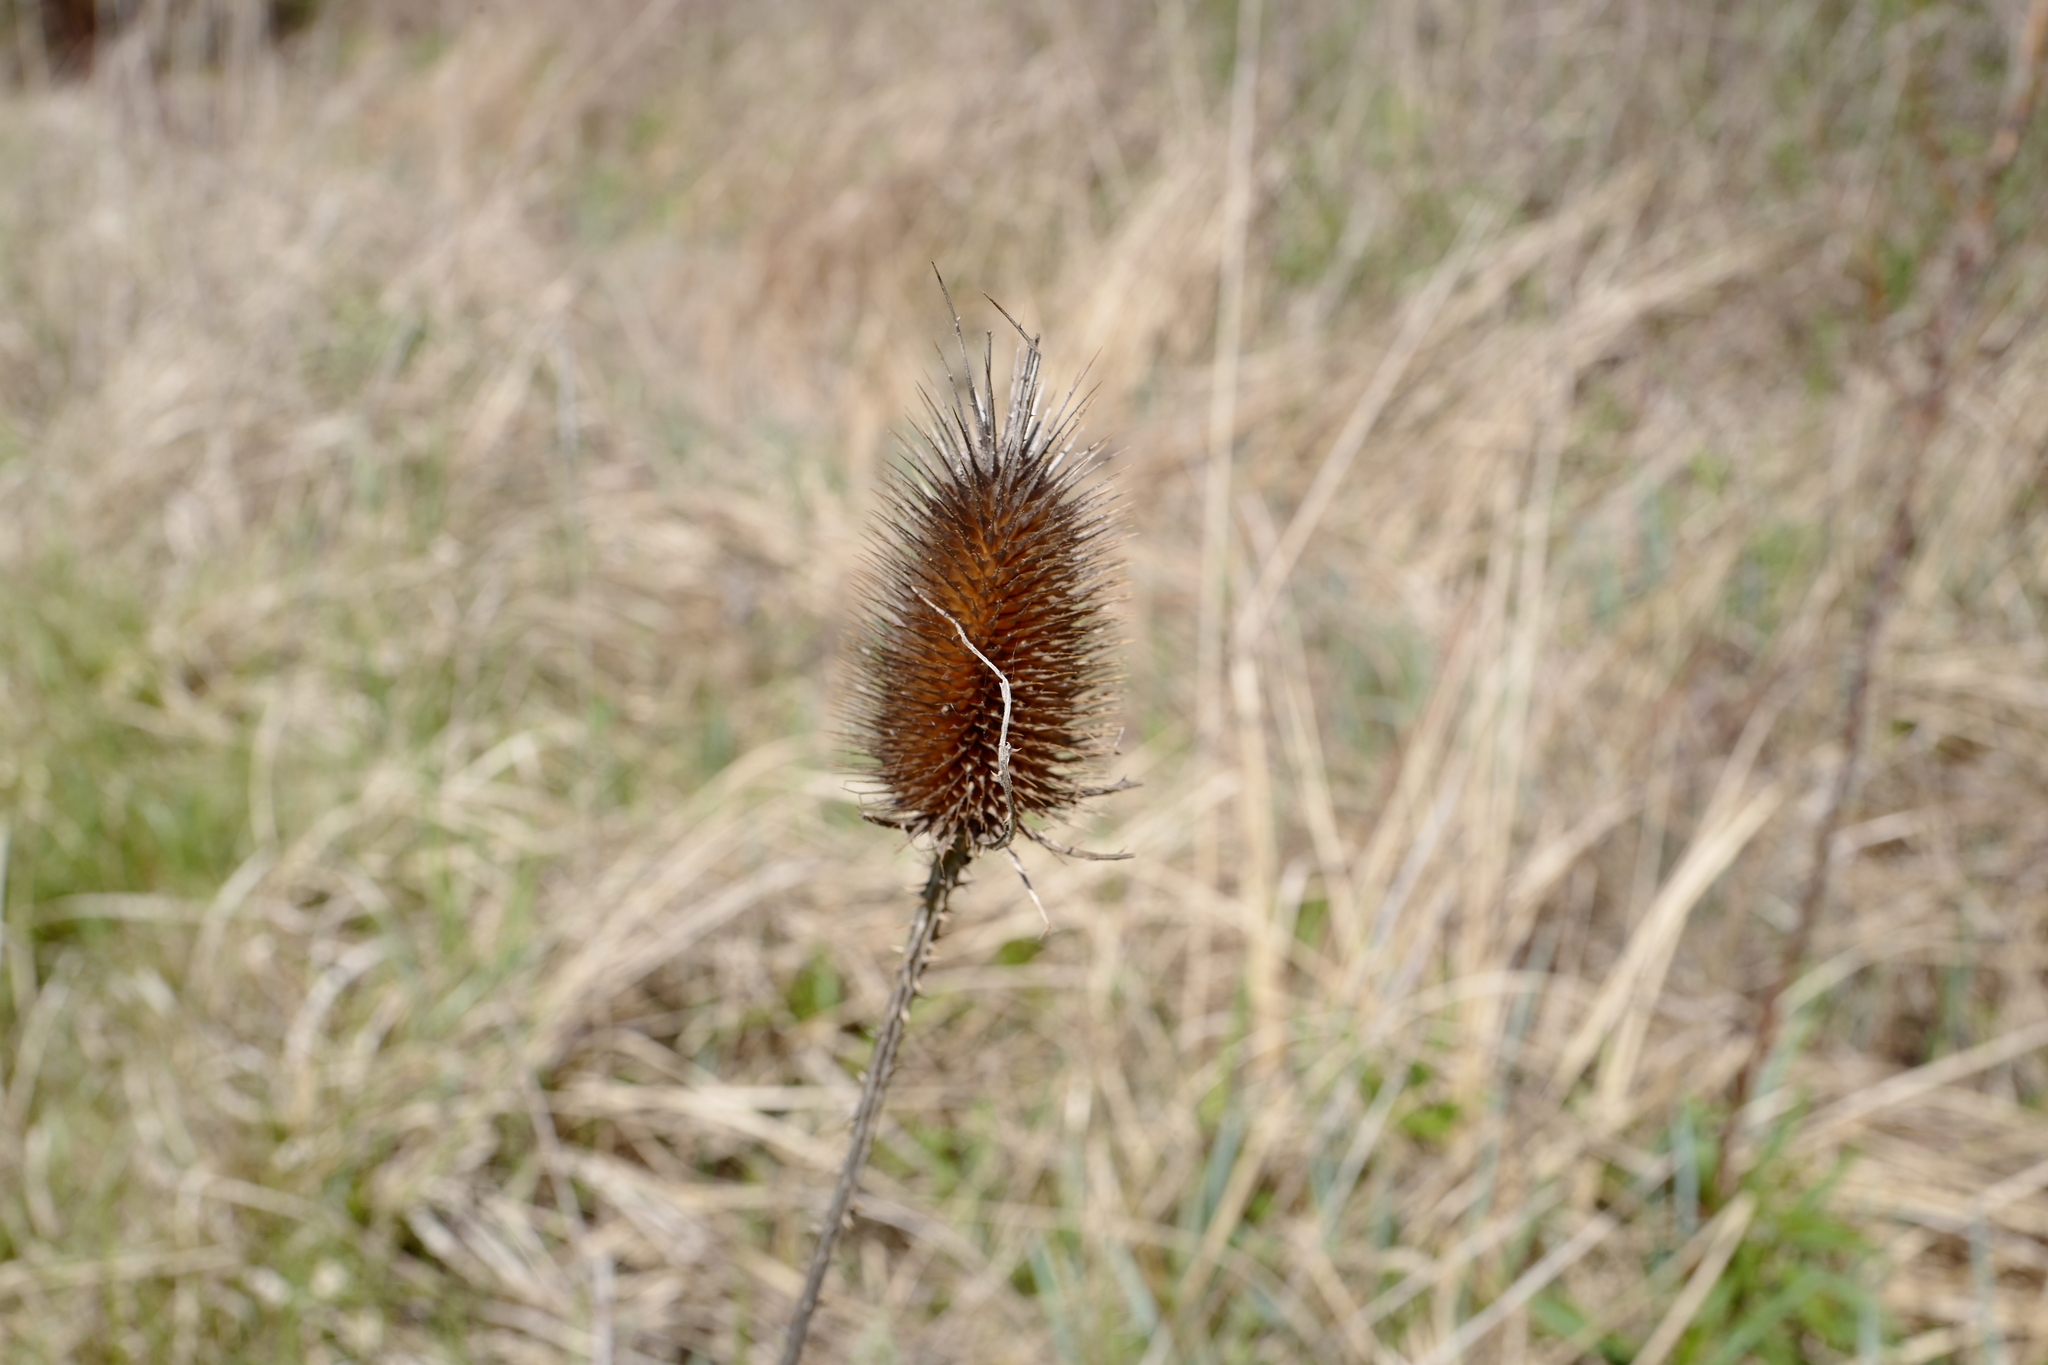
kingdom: Plantae
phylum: Tracheophyta
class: Magnoliopsida
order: Dipsacales
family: Caprifoliaceae
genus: Dipsacus
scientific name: Dipsacus fullonum
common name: Teasel
